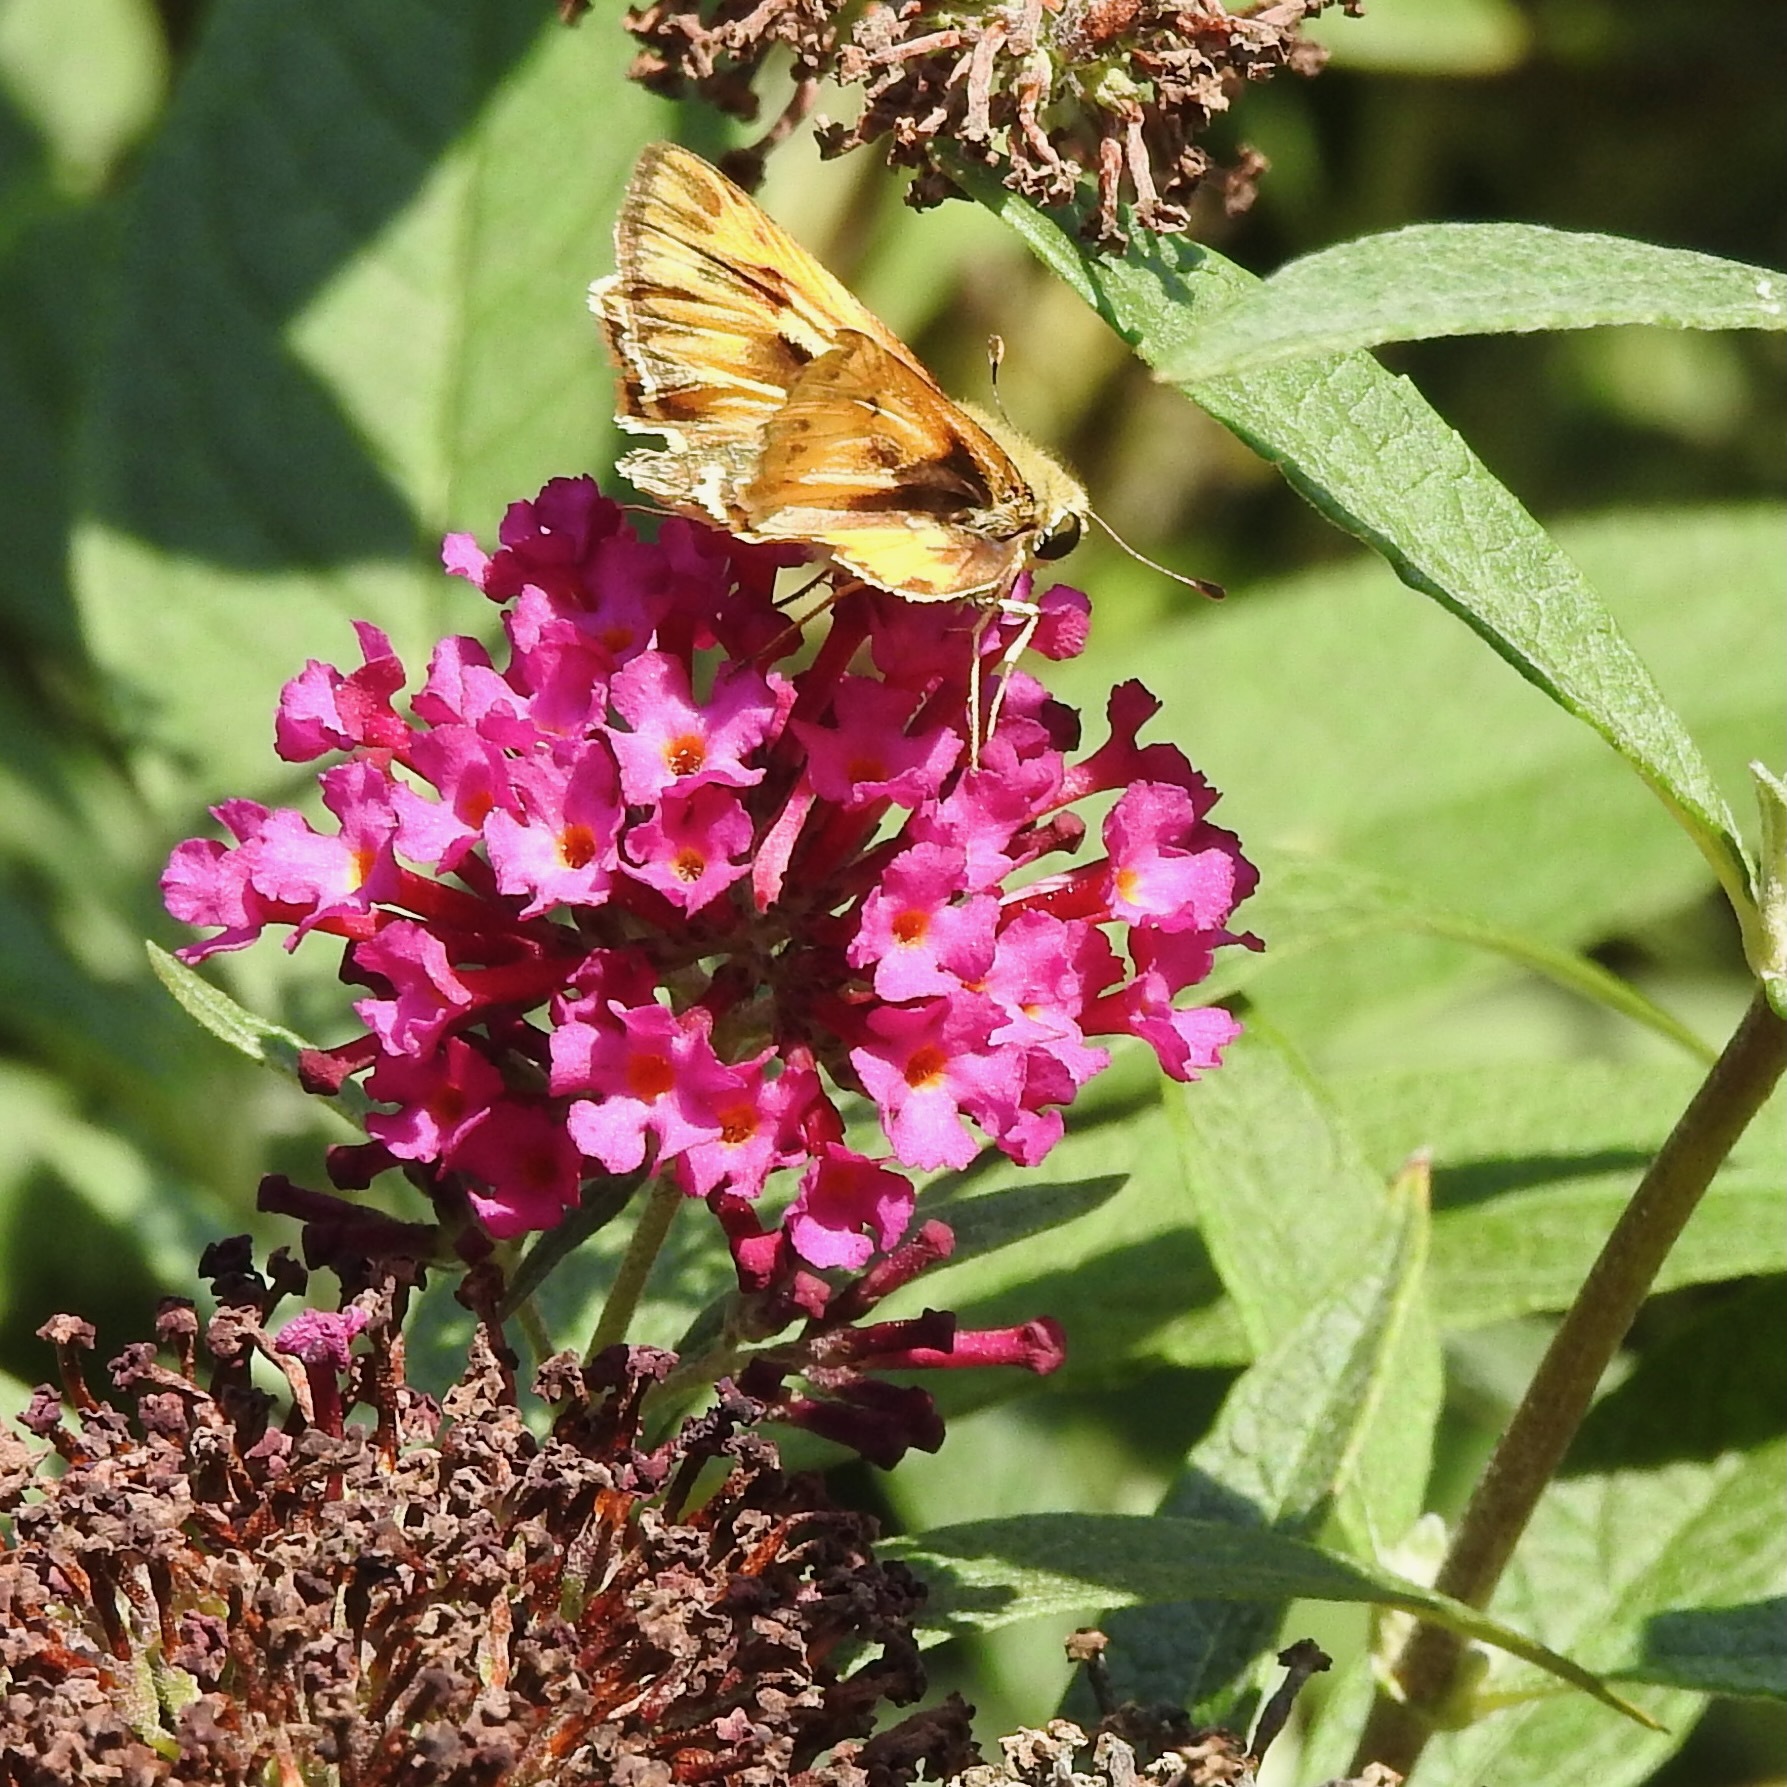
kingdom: Animalia
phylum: Arthropoda
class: Insecta
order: Lepidoptera
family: Hesperiidae
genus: Hylephila
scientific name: Hylephila phyleus
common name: Fiery skipper
